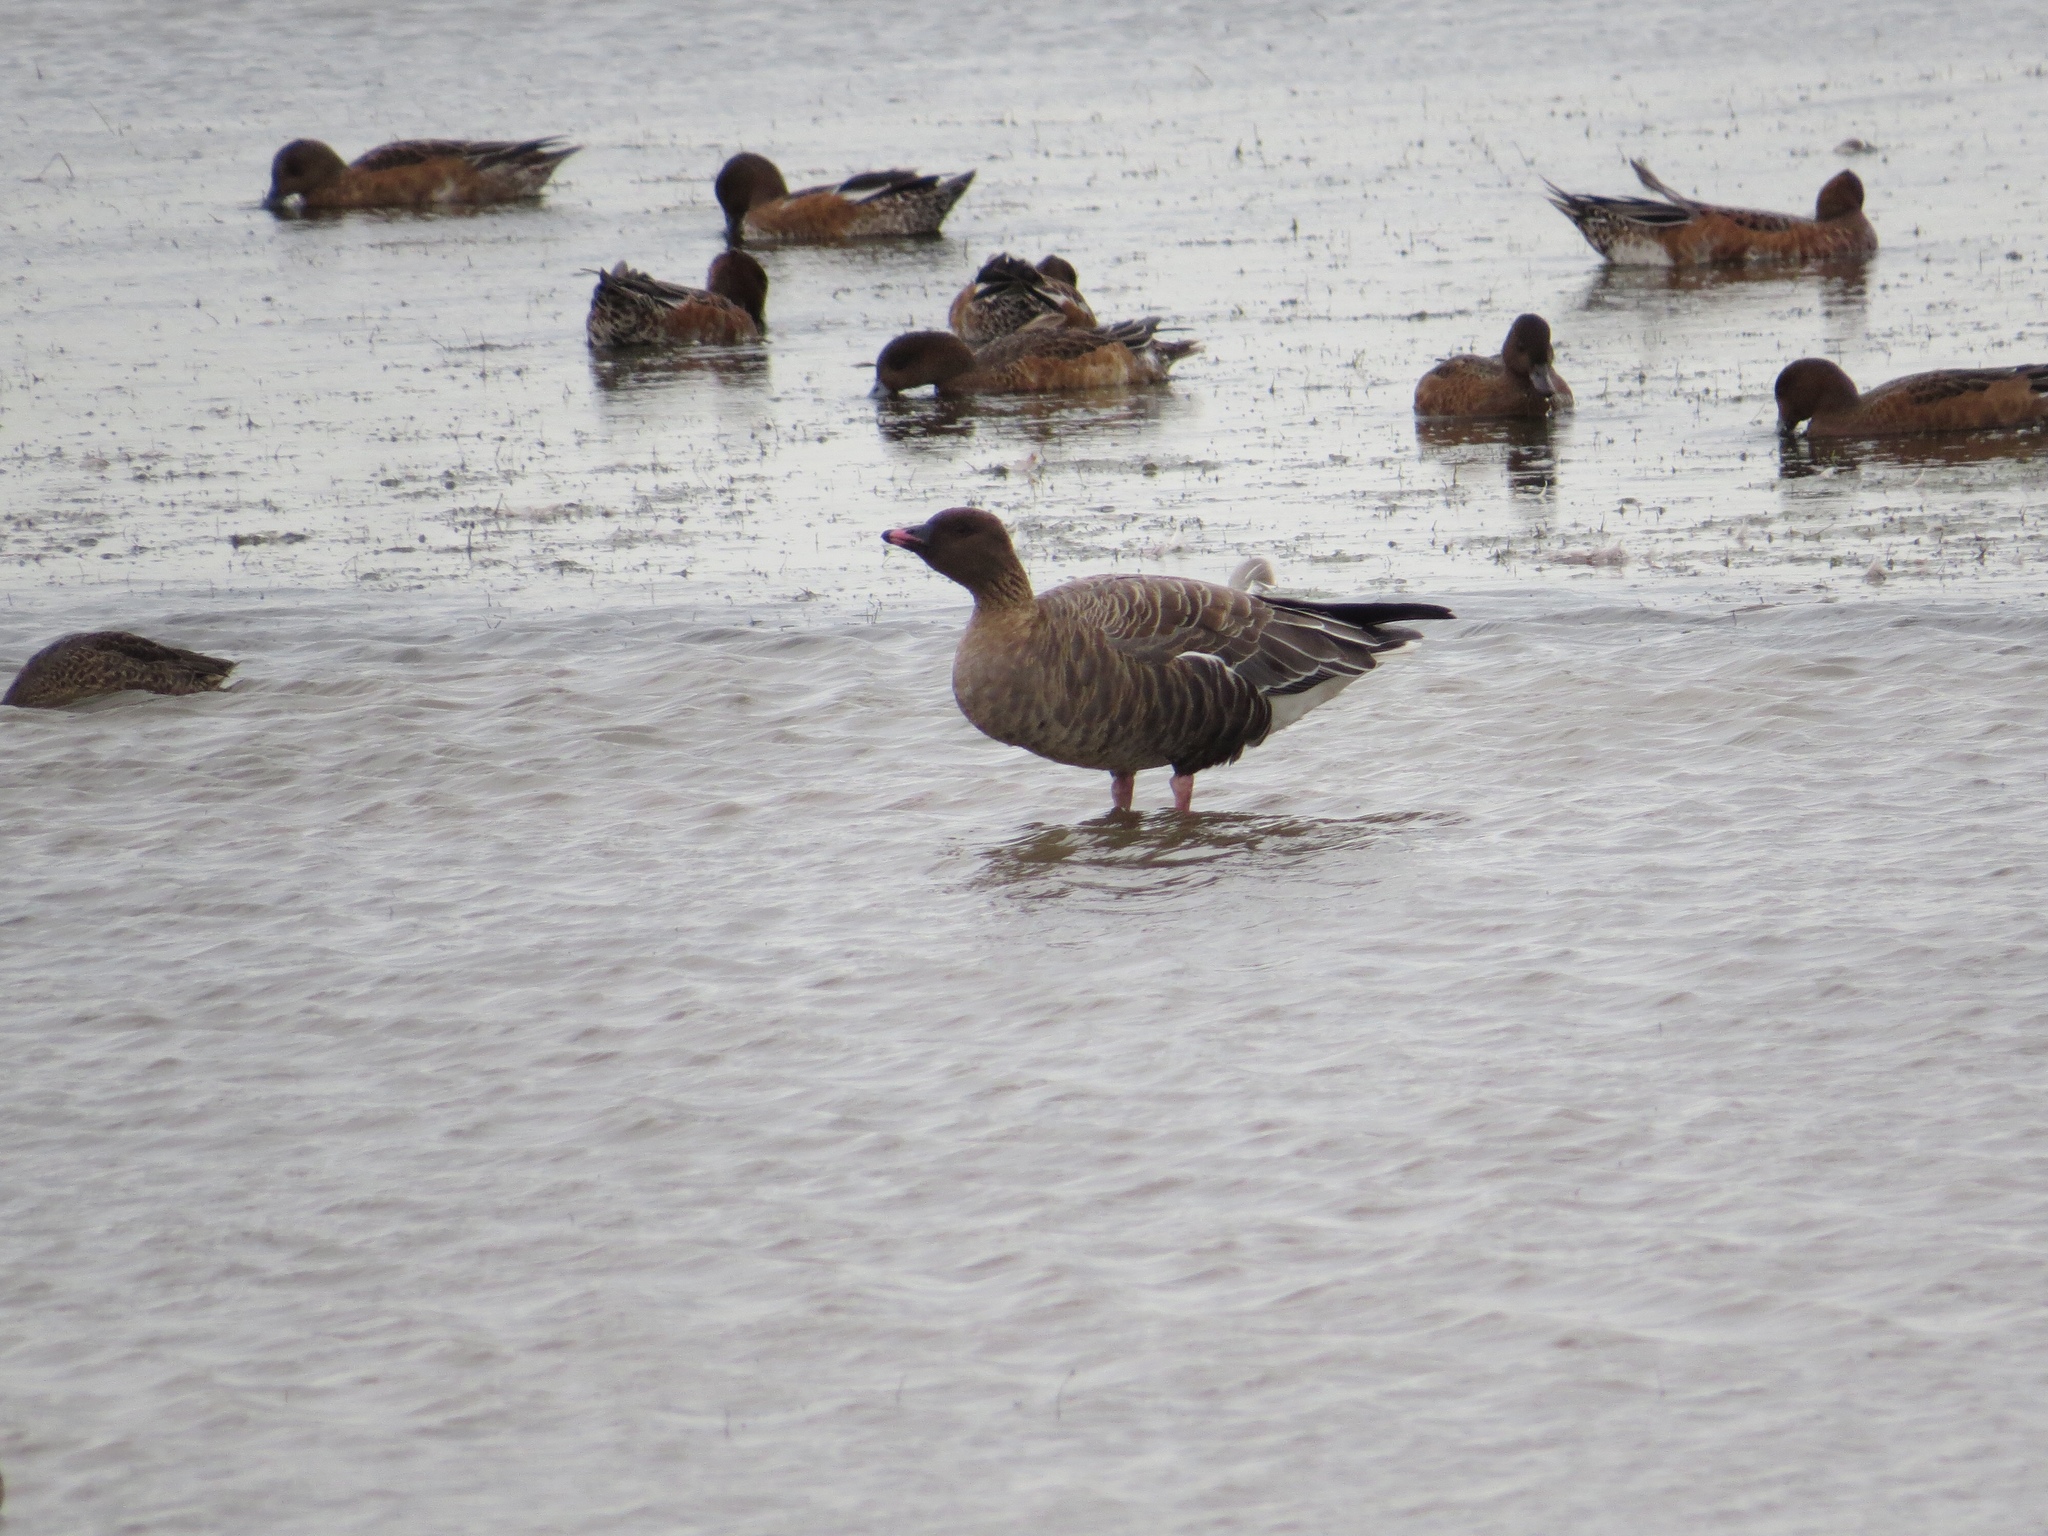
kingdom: Animalia
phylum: Chordata
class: Aves
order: Anseriformes
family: Anatidae
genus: Anser
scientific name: Anser brachyrhynchus
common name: Pink-footed goose
